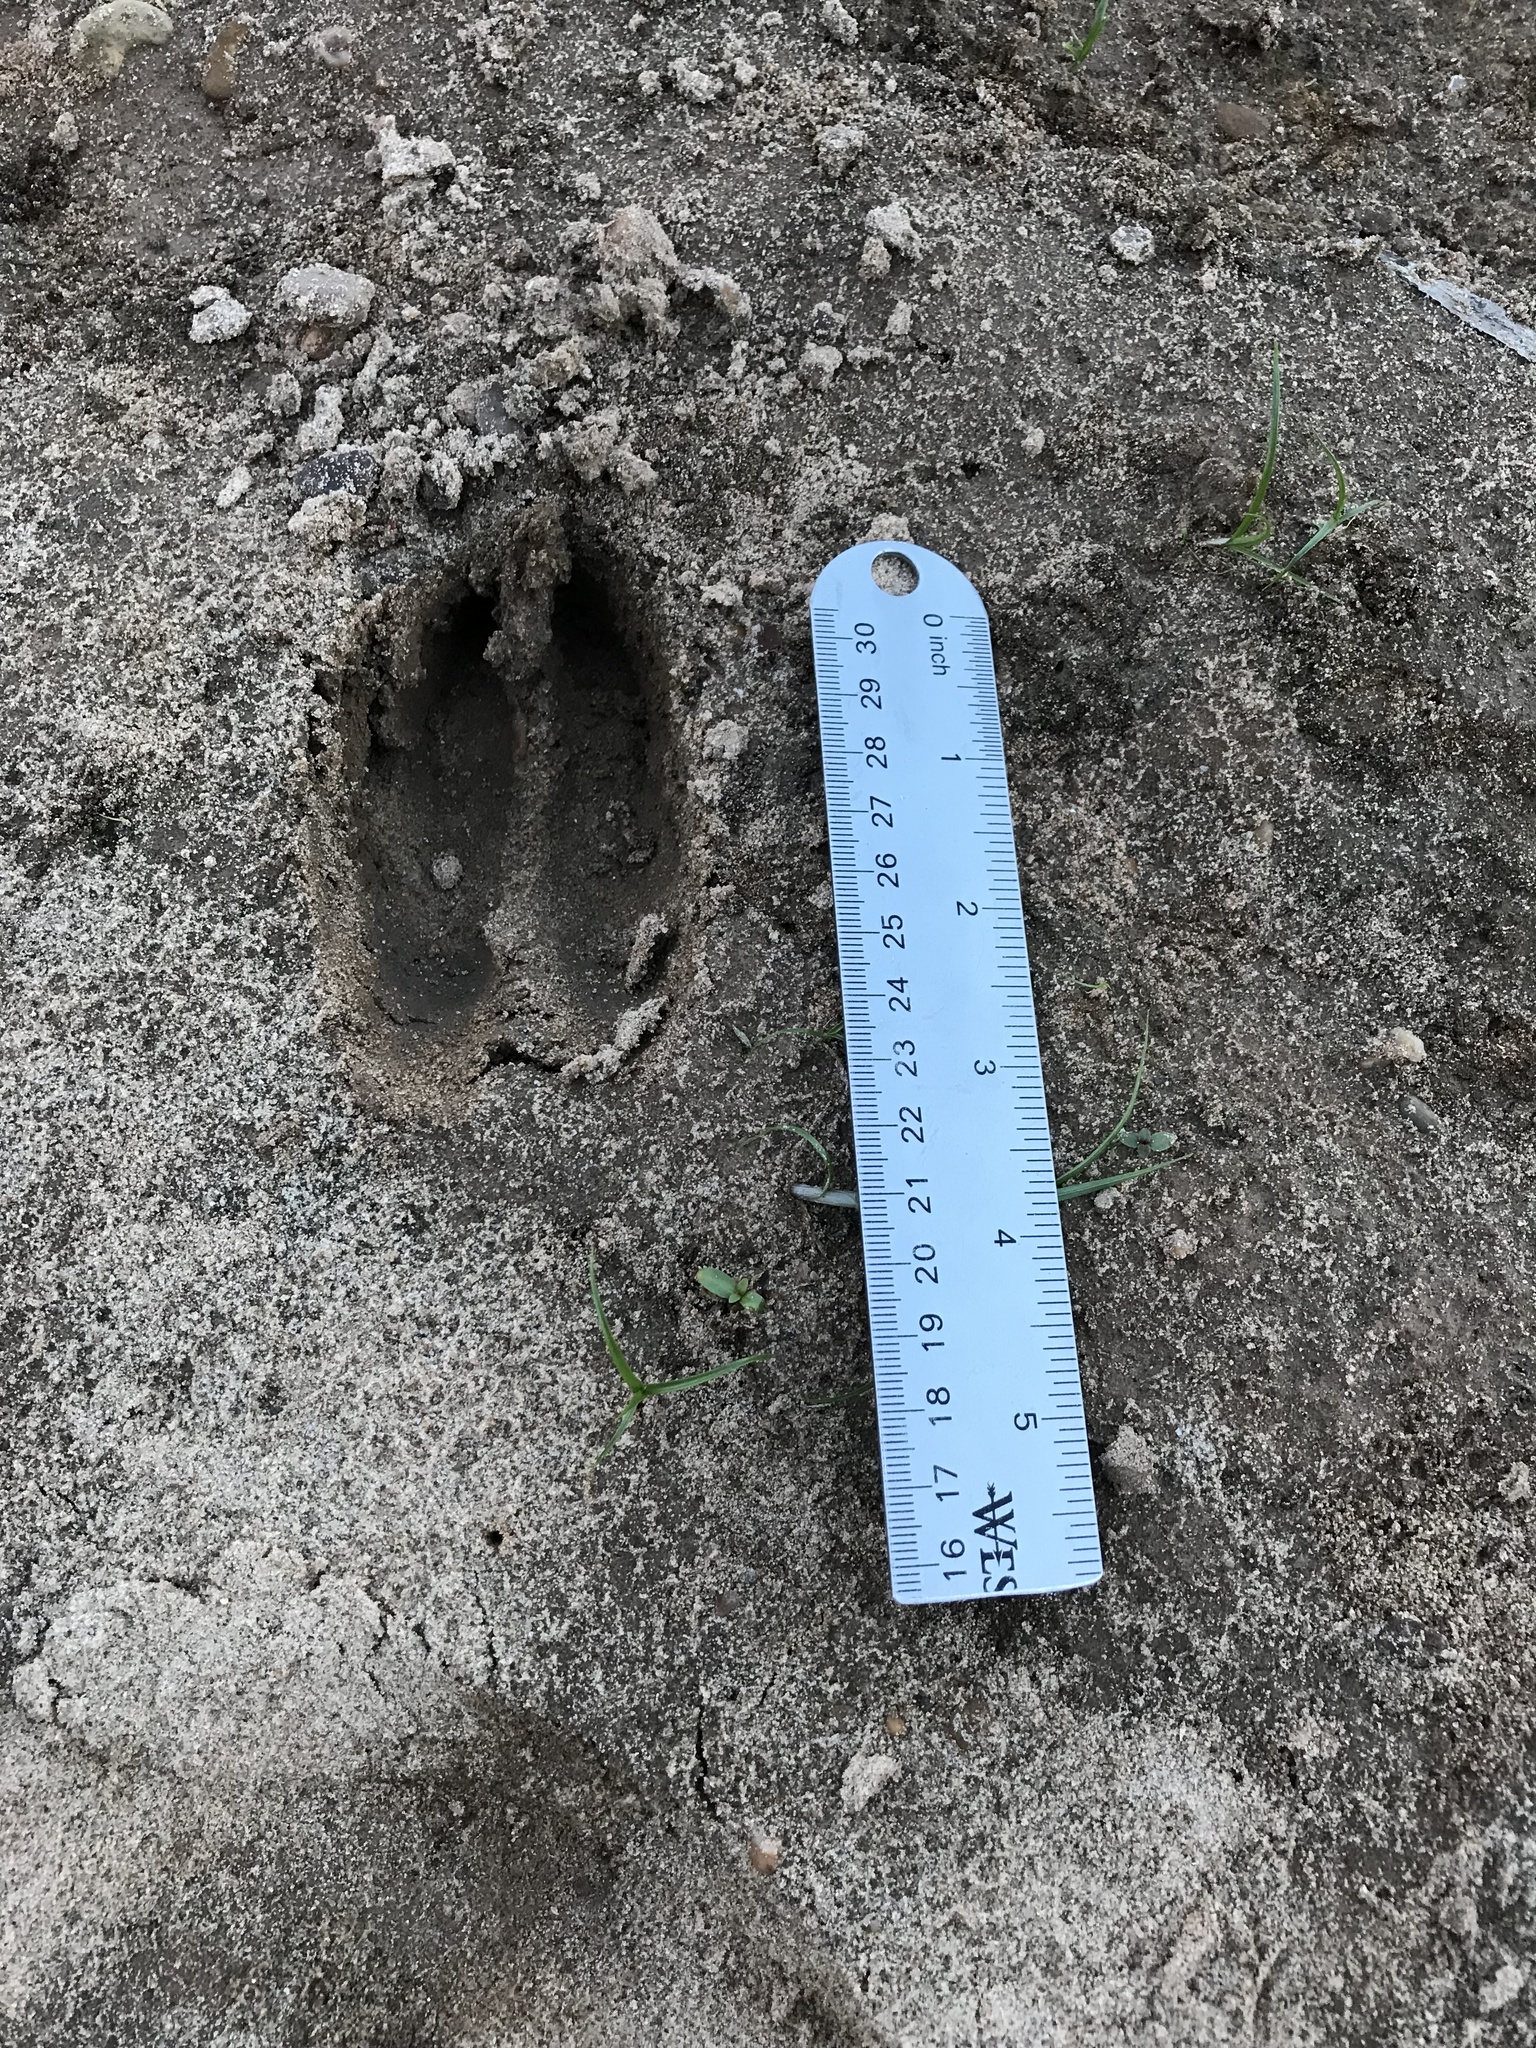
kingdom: Animalia
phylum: Chordata
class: Mammalia
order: Artiodactyla
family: Cervidae
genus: Odocoileus
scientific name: Odocoileus virginianus
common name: White-tailed deer
